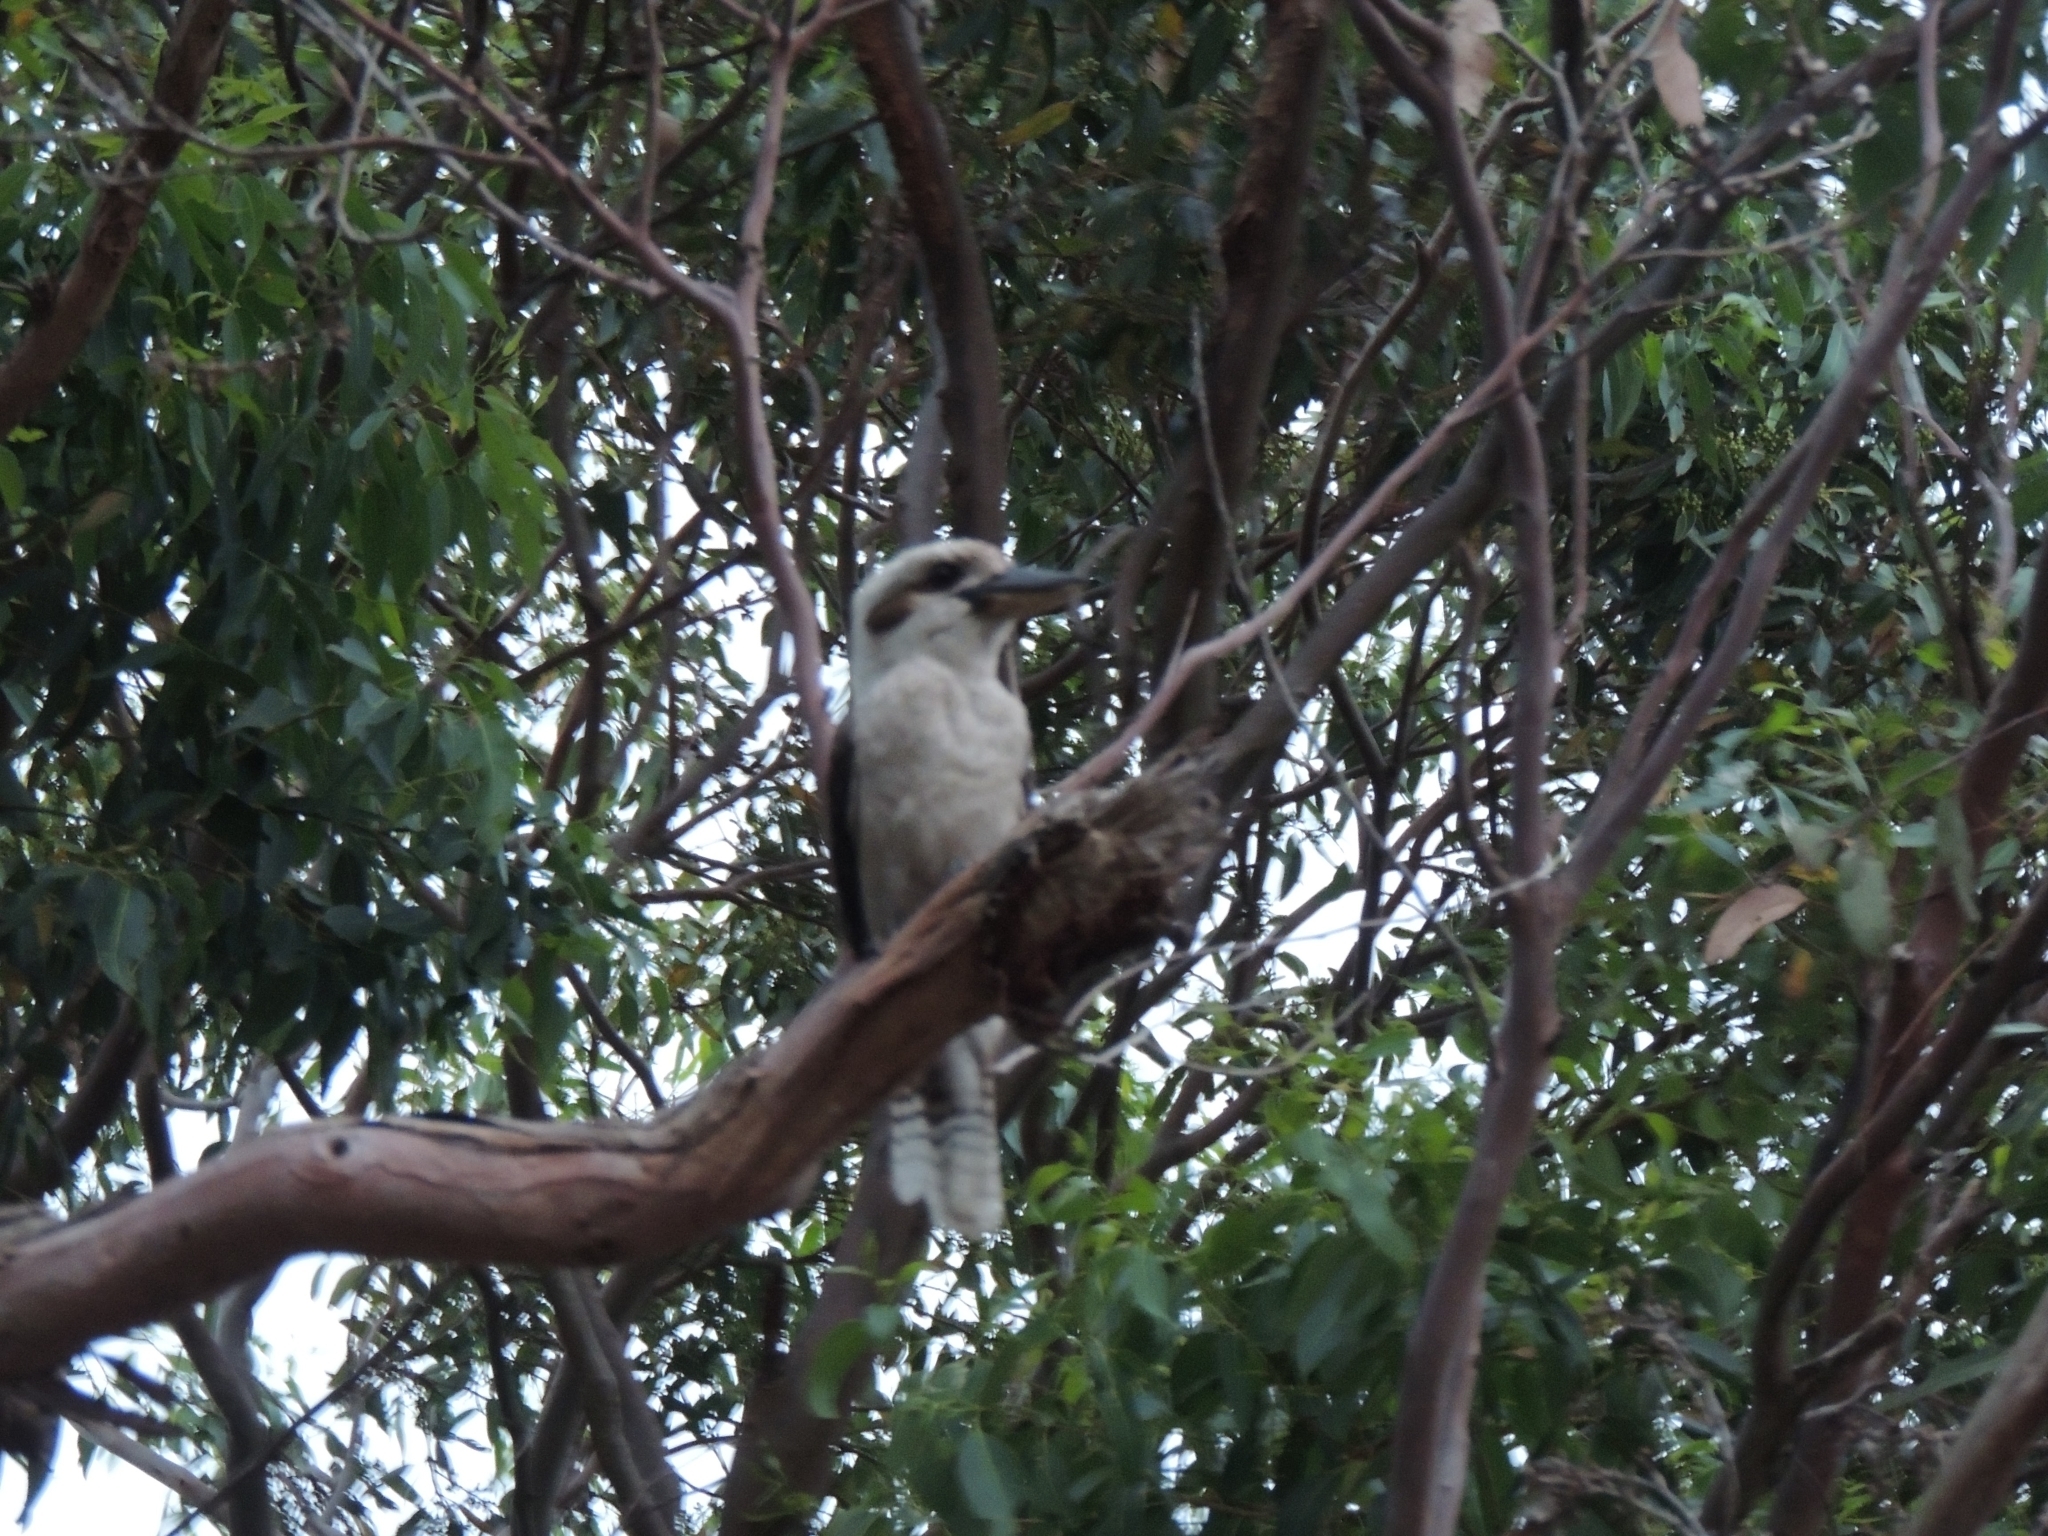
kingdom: Animalia
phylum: Chordata
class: Aves
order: Coraciiformes
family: Alcedinidae
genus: Dacelo
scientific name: Dacelo novaeguineae
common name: Laughing kookaburra
